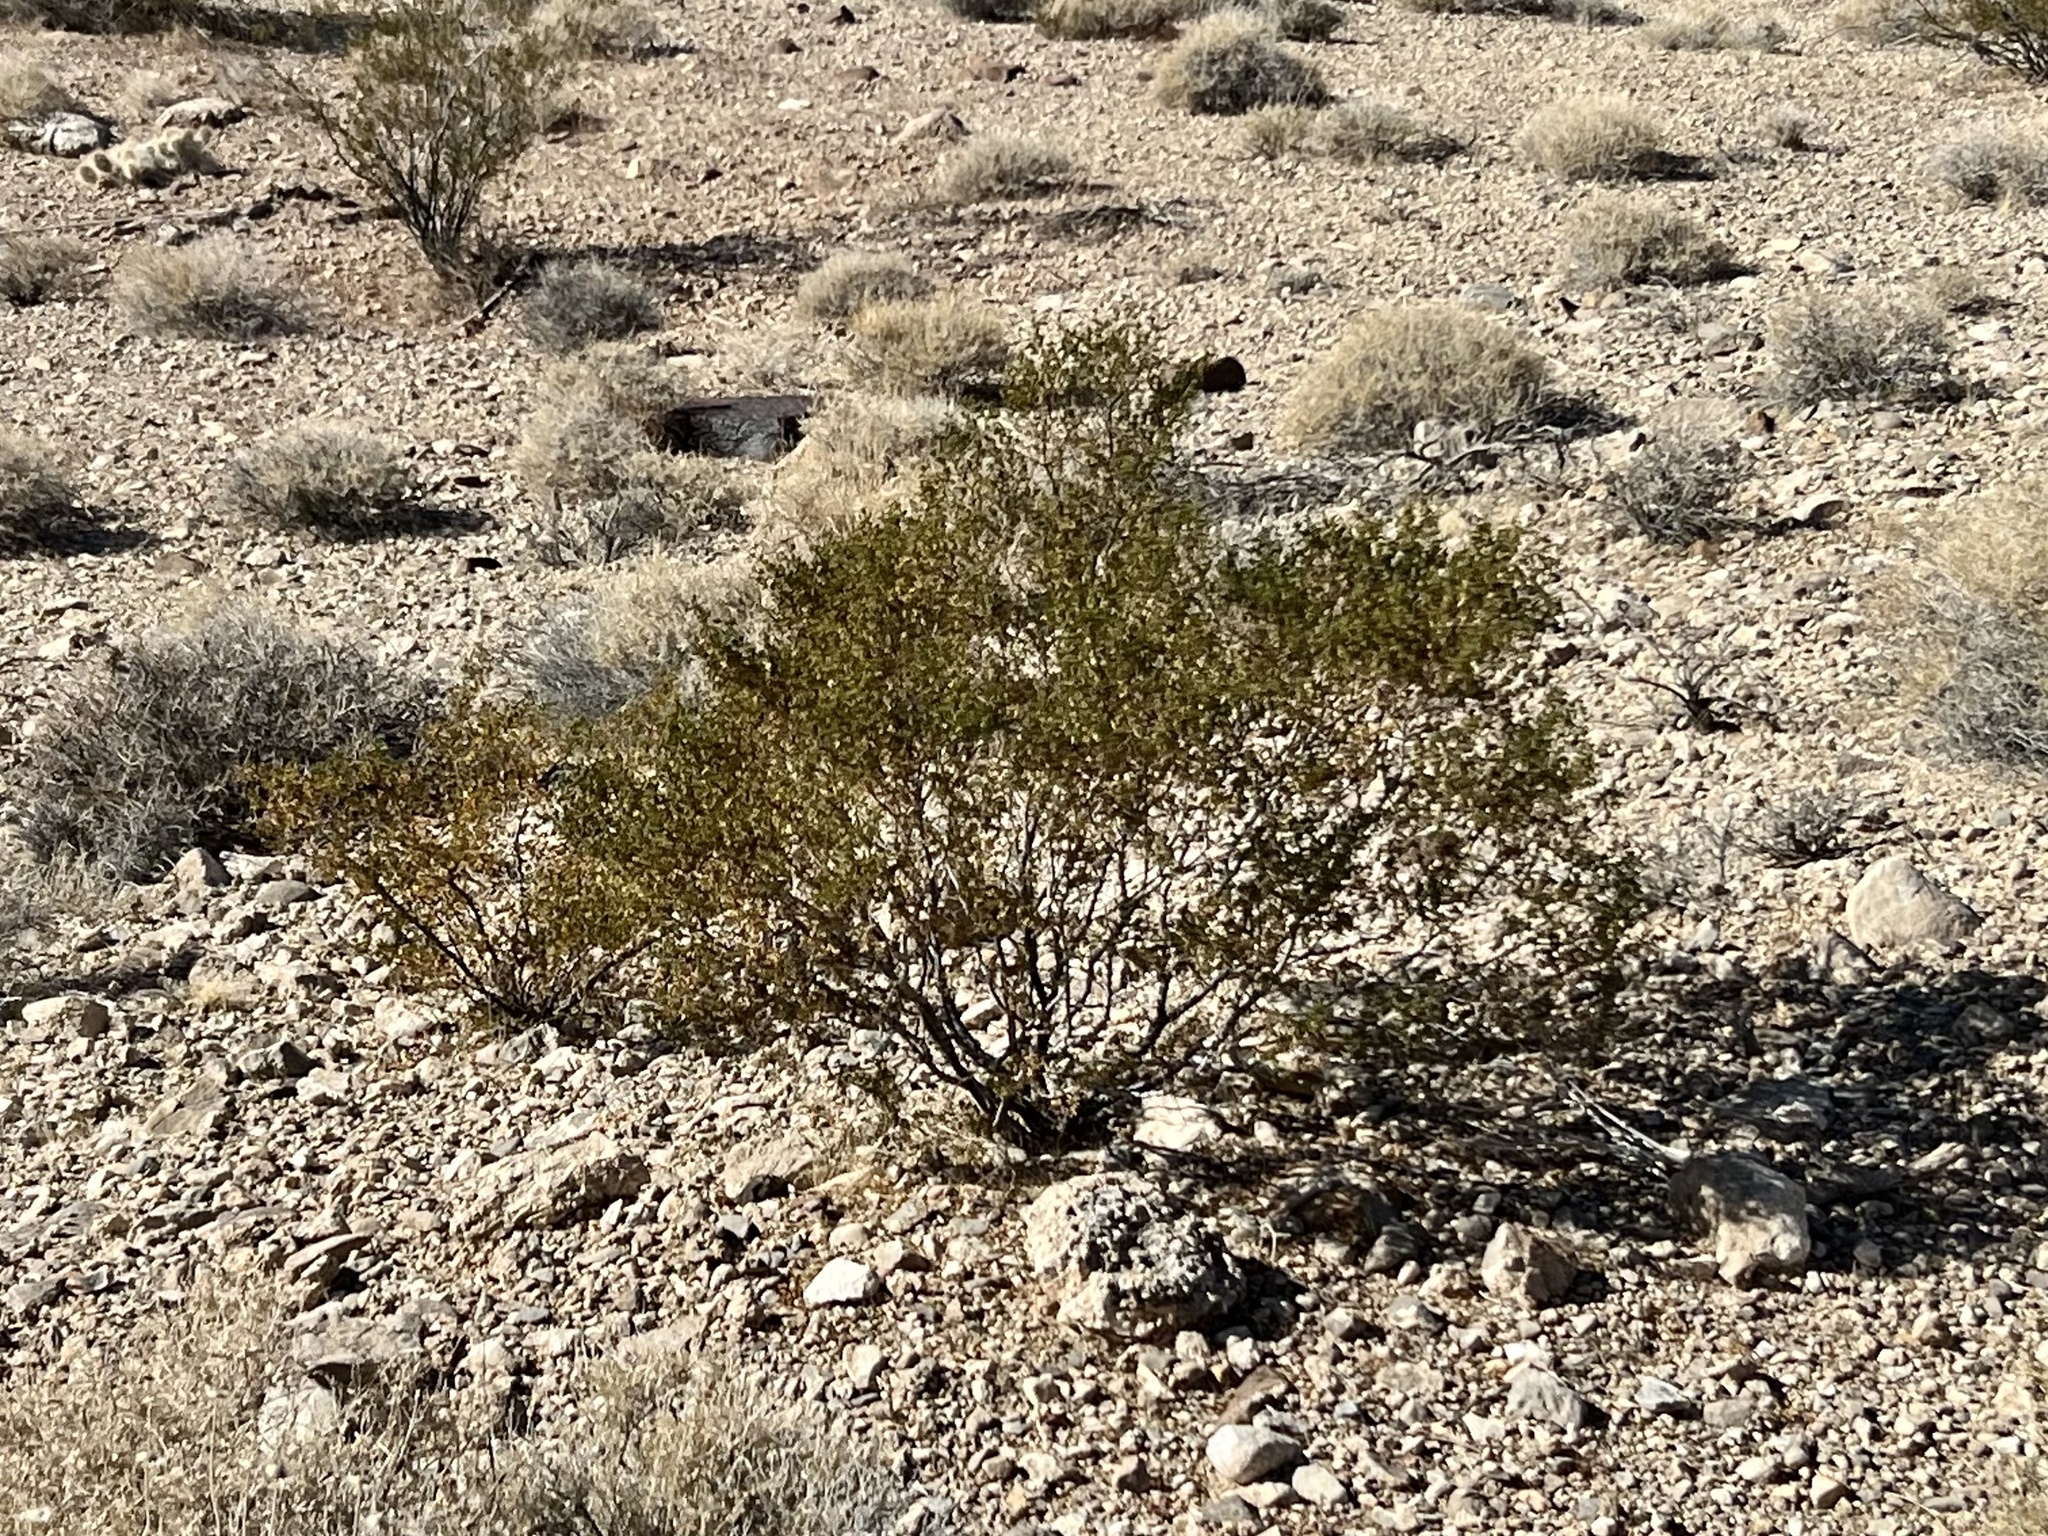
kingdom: Plantae
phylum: Tracheophyta
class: Magnoliopsida
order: Zygophyllales
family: Zygophyllaceae
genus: Larrea
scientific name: Larrea tridentata
